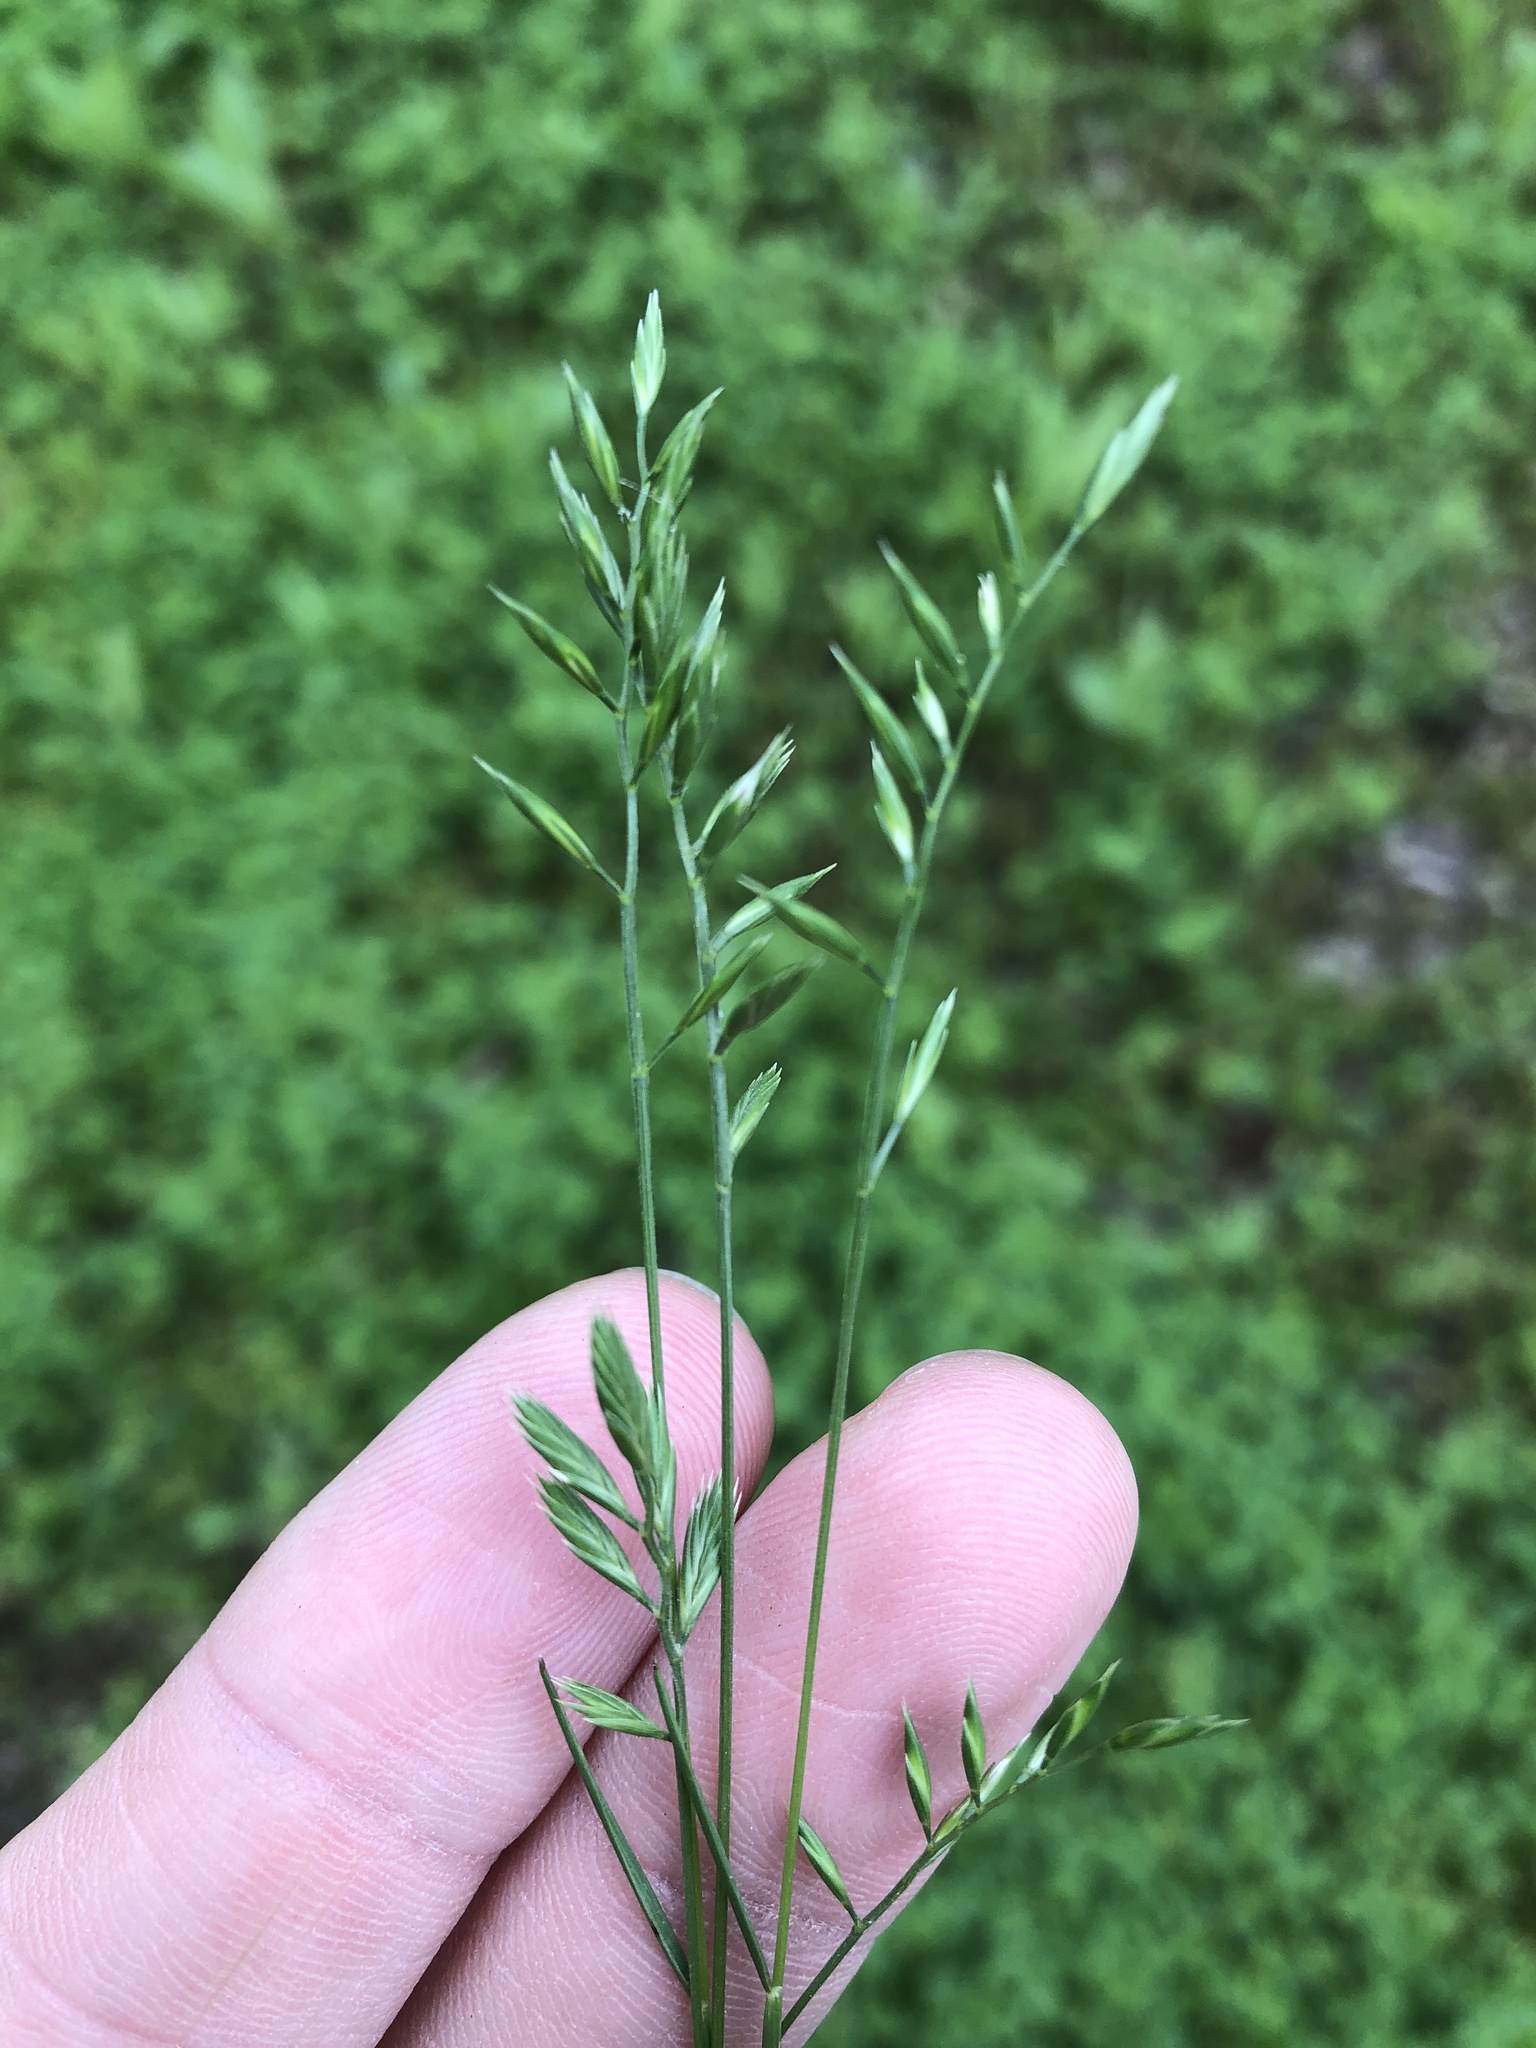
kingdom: Plantae
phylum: Tracheophyta
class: Liliopsida
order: Poales
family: Poaceae
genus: Festuca
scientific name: Festuca octoflora
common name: Sixweeks grass
